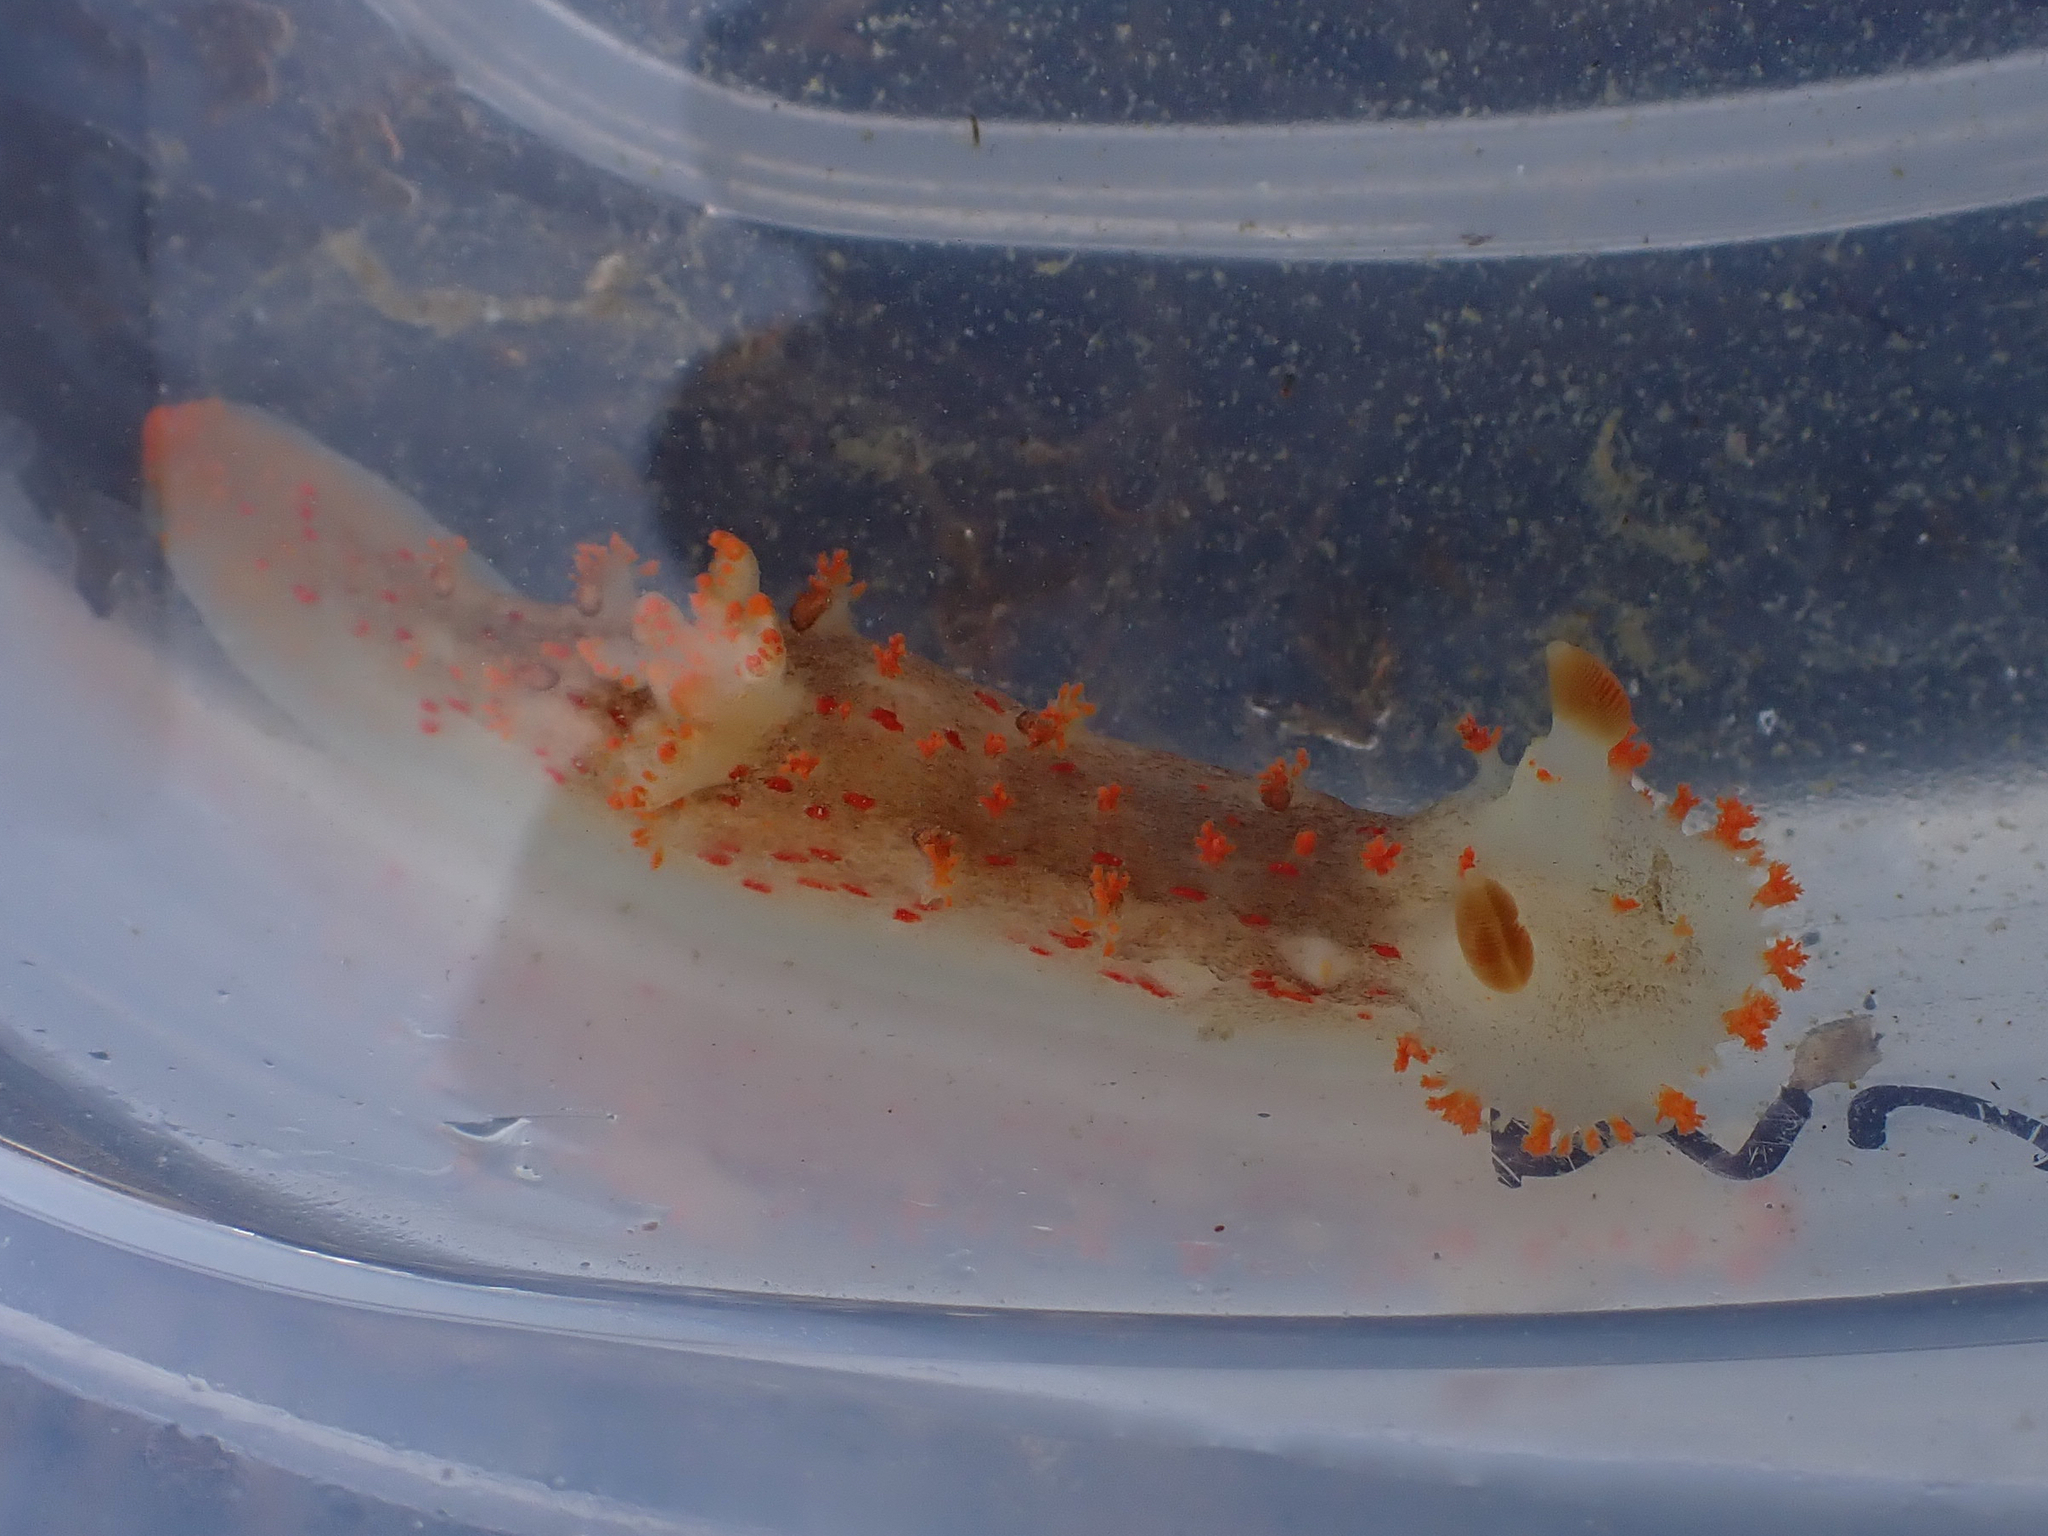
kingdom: Animalia
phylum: Mollusca
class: Gastropoda
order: Nudibranchia
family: Polyceridae
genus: Triopha
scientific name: Triopha modesta
